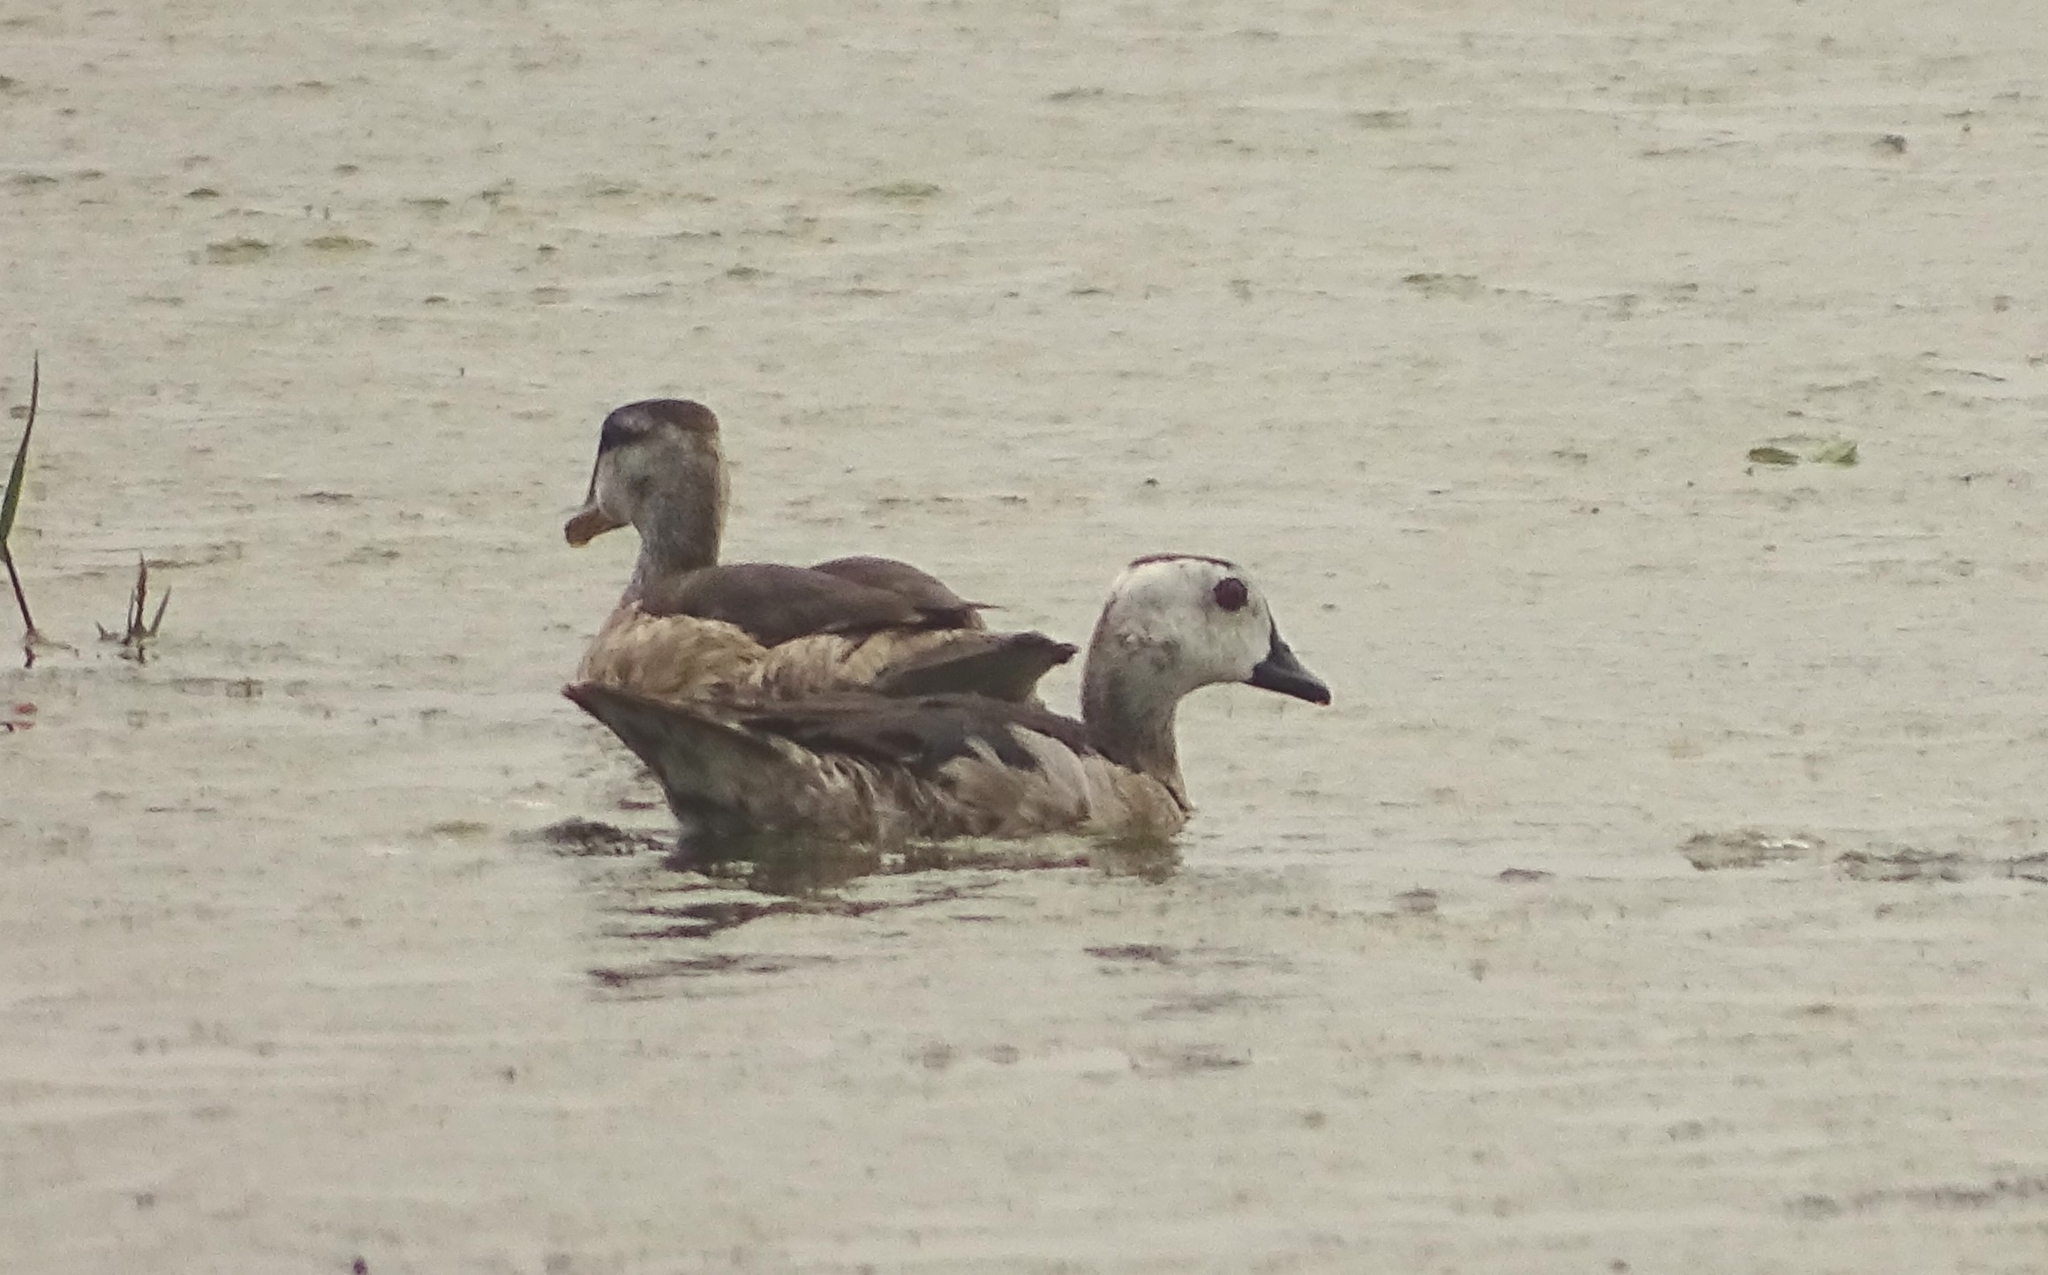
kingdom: Animalia
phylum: Chordata
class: Aves
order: Anseriformes
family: Anatidae
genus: Nettapus
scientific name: Nettapus coromandelianus
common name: Cotton pygmy-goose
